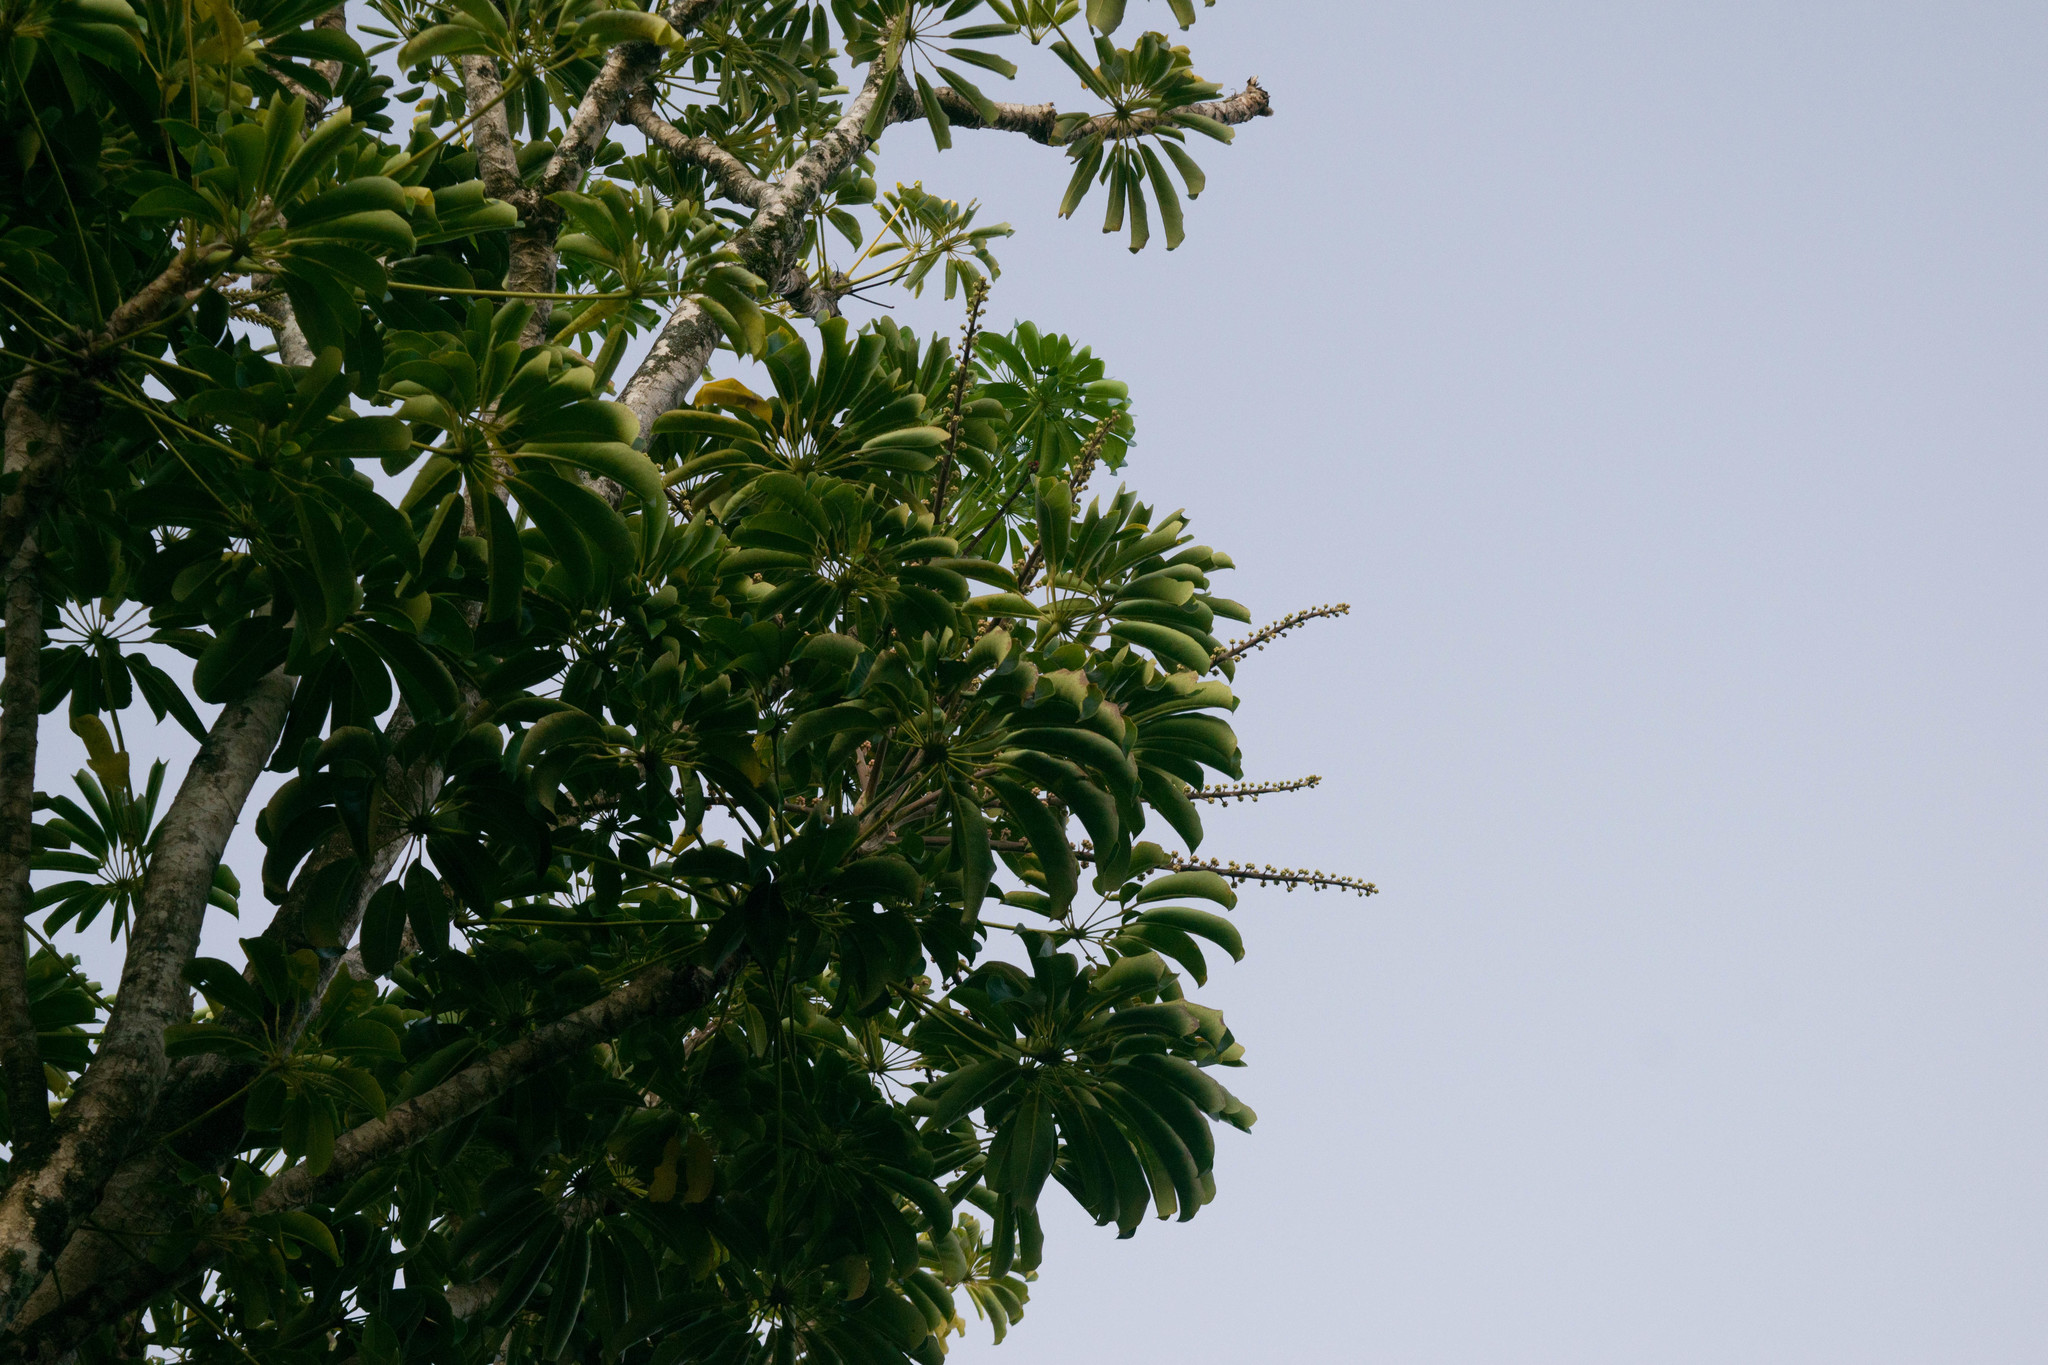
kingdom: Plantae
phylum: Tracheophyta
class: Magnoliopsida
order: Apiales
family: Araliaceae
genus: Heptapleurum
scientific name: Heptapleurum actinophyllum
